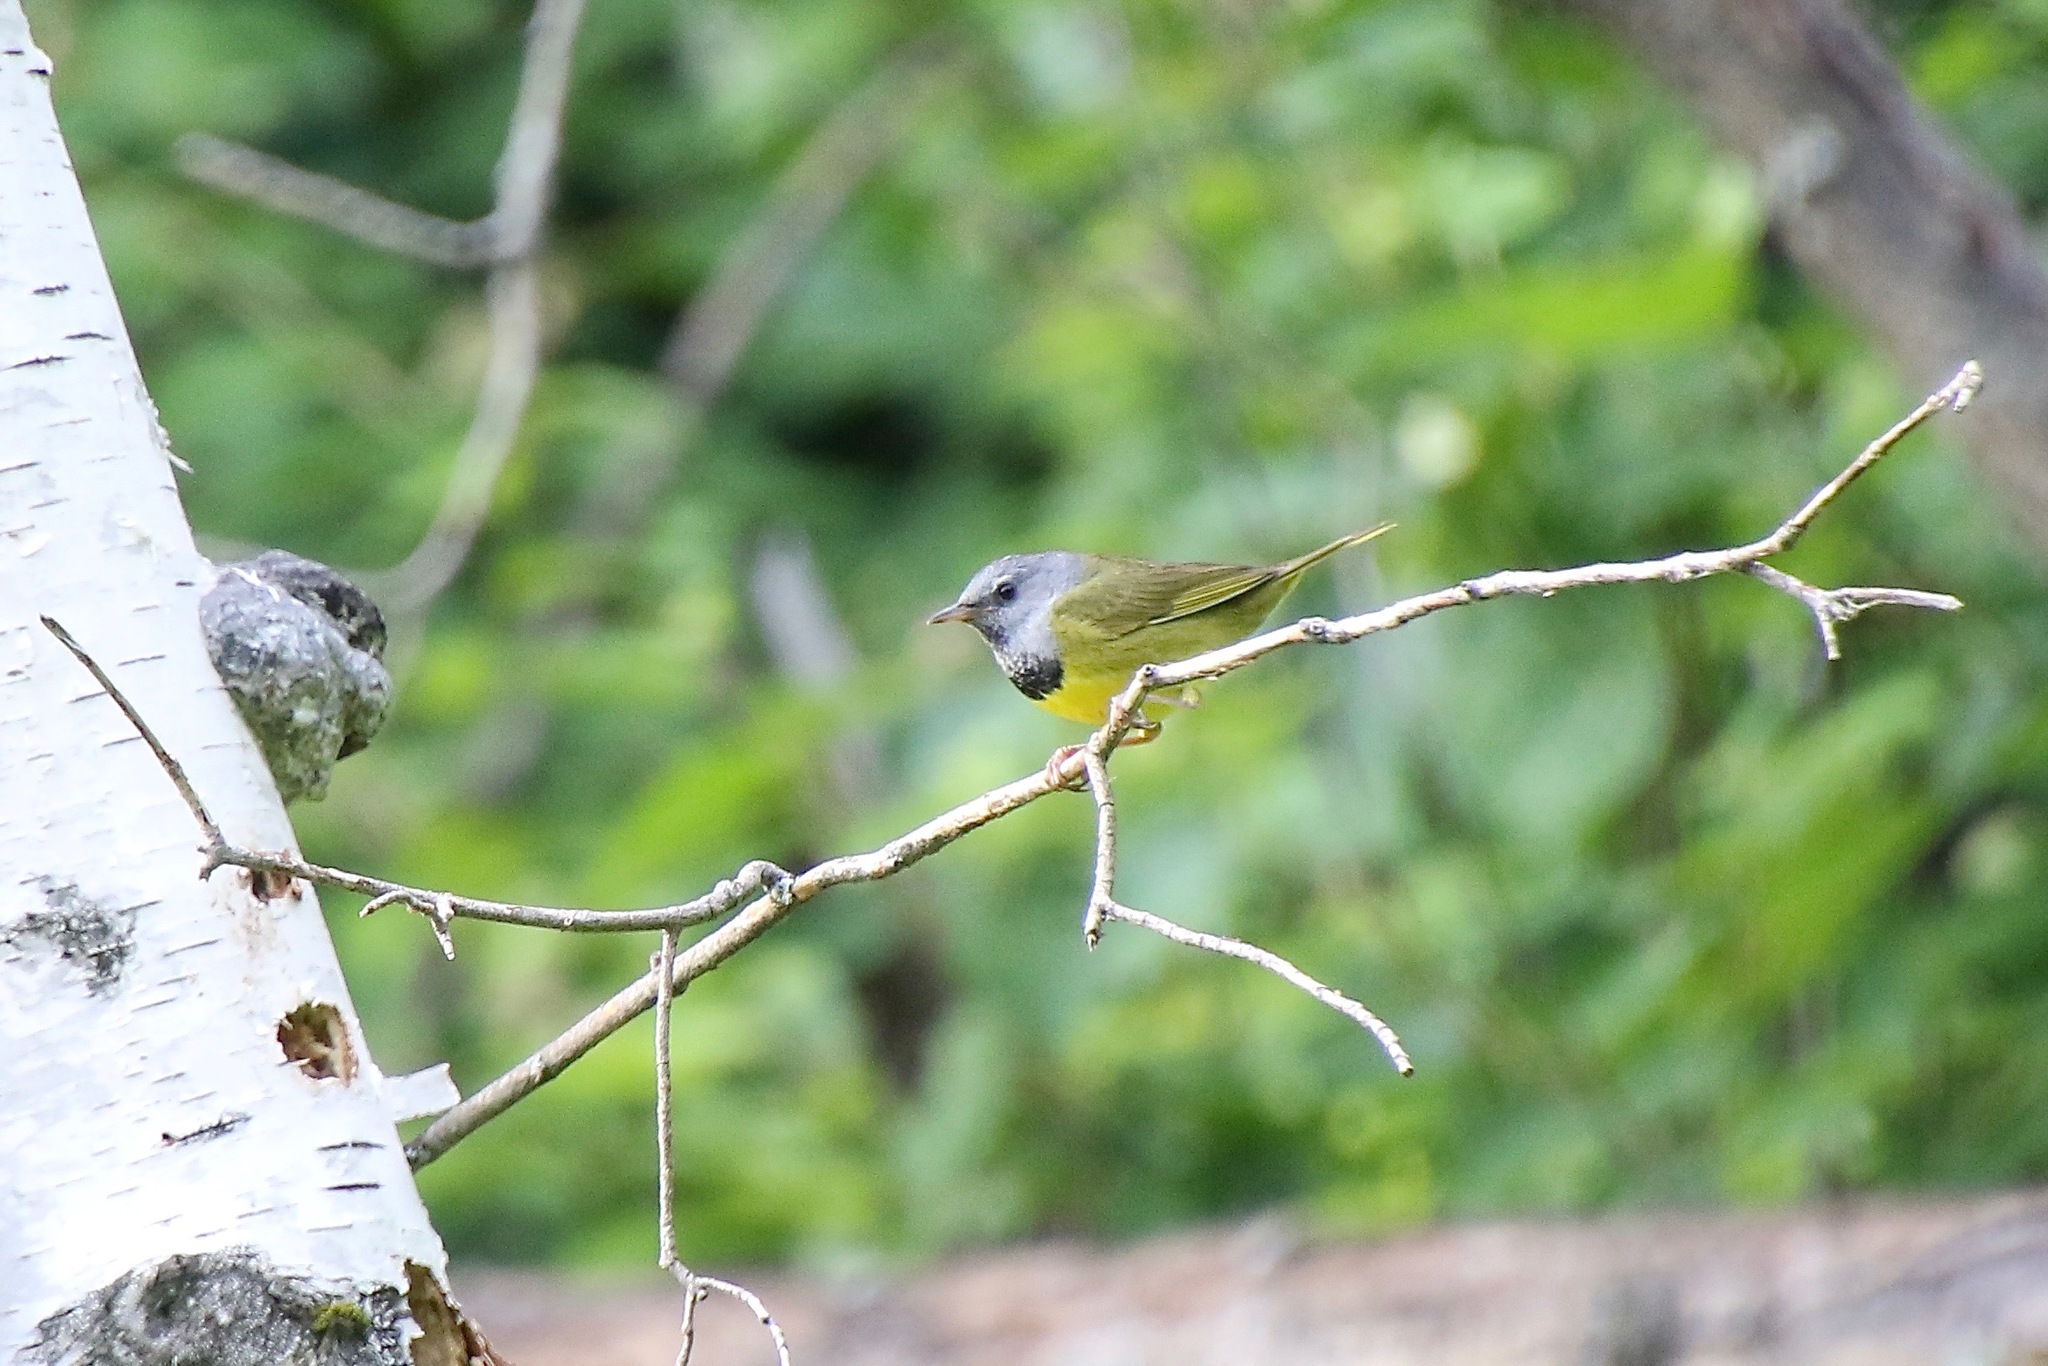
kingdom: Animalia
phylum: Chordata
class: Aves
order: Passeriformes
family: Parulidae
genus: Geothlypis
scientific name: Geothlypis philadelphia
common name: Mourning warbler
